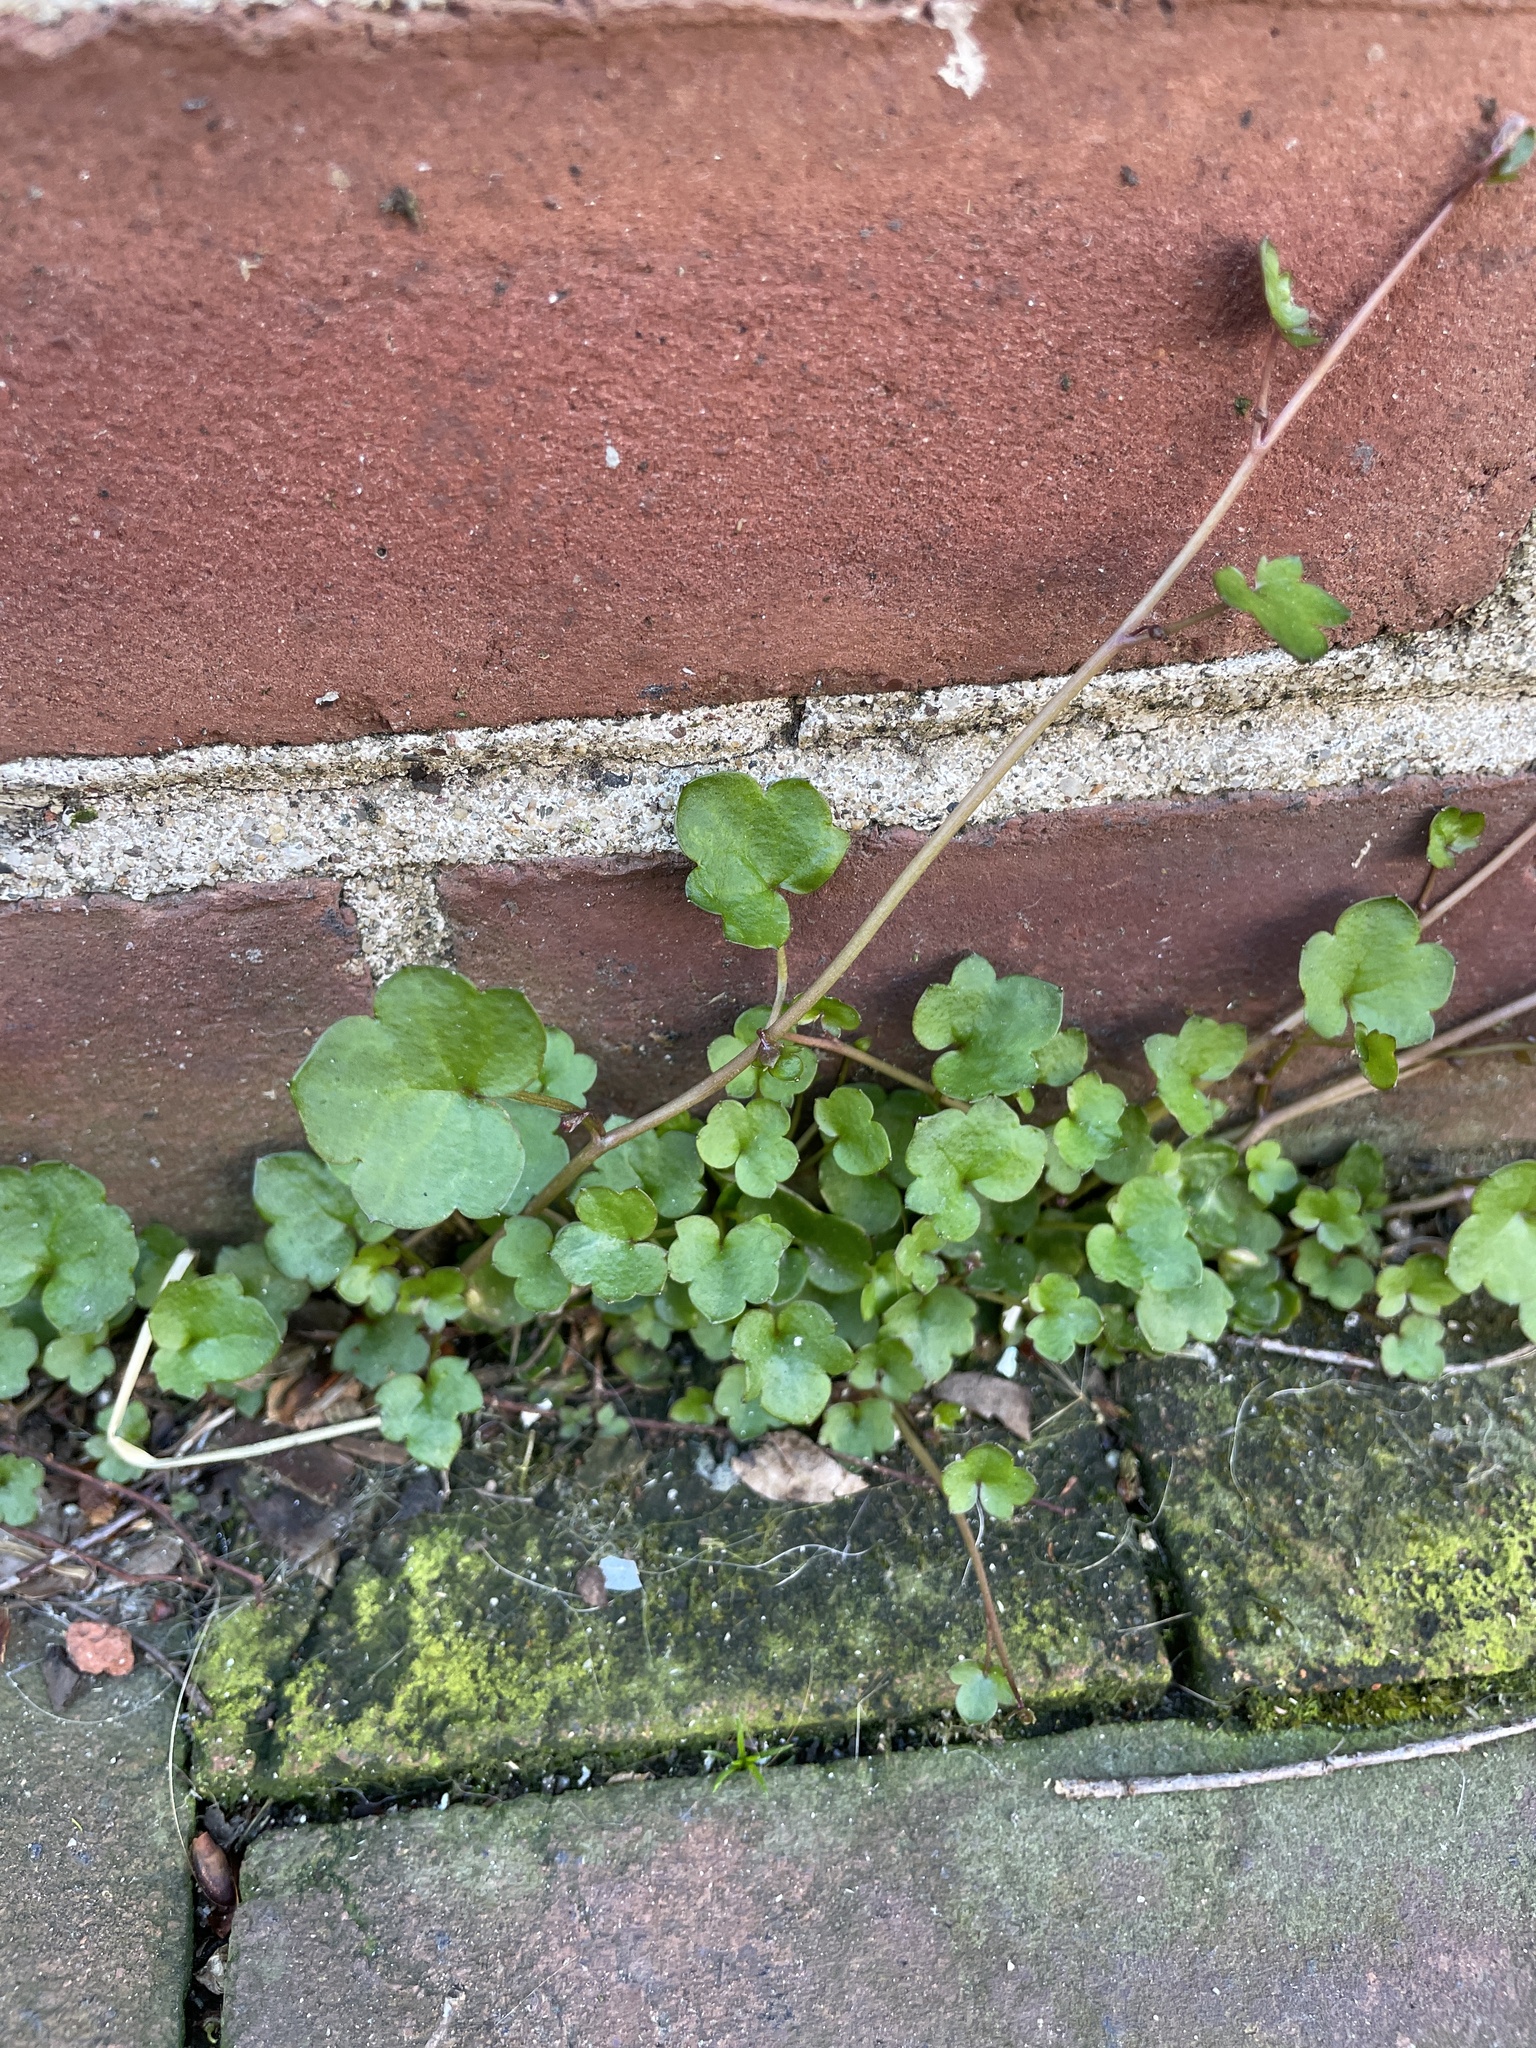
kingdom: Plantae
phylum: Tracheophyta
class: Magnoliopsida
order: Lamiales
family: Plantaginaceae
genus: Cymbalaria
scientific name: Cymbalaria muralis
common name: Ivy-leaved toadflax
